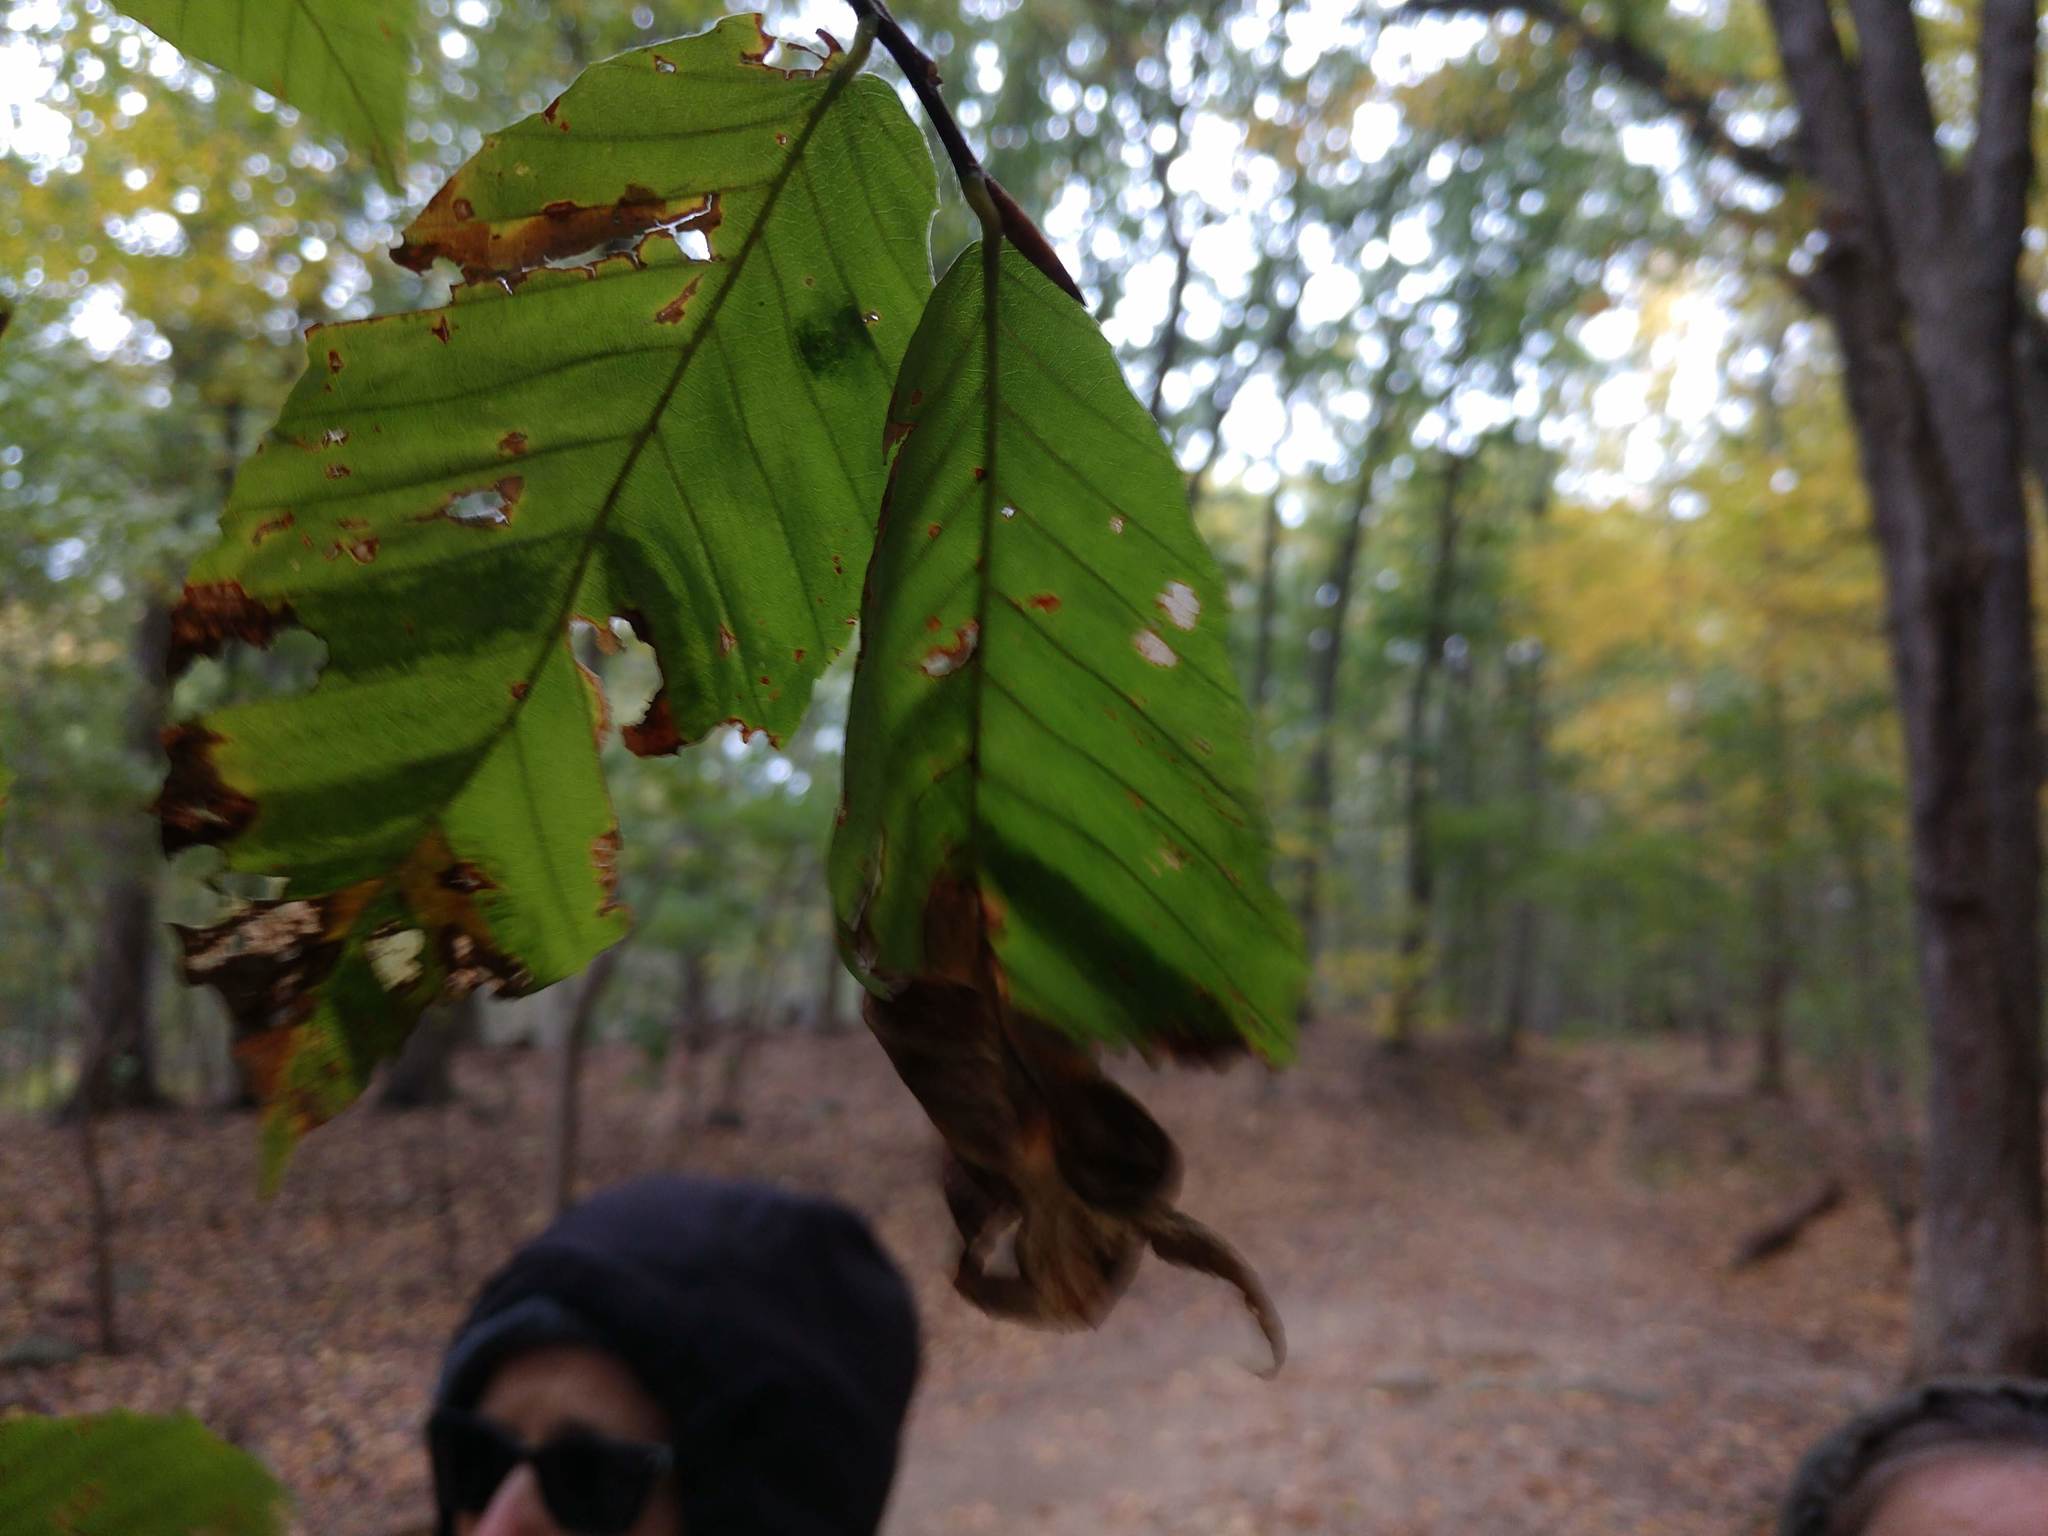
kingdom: Animalia
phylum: Nematoda
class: Chromadorea
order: Rhabditida
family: Anguinidae
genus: Litylenchus
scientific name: Litylenchus crenatae
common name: Beech leaf disease
